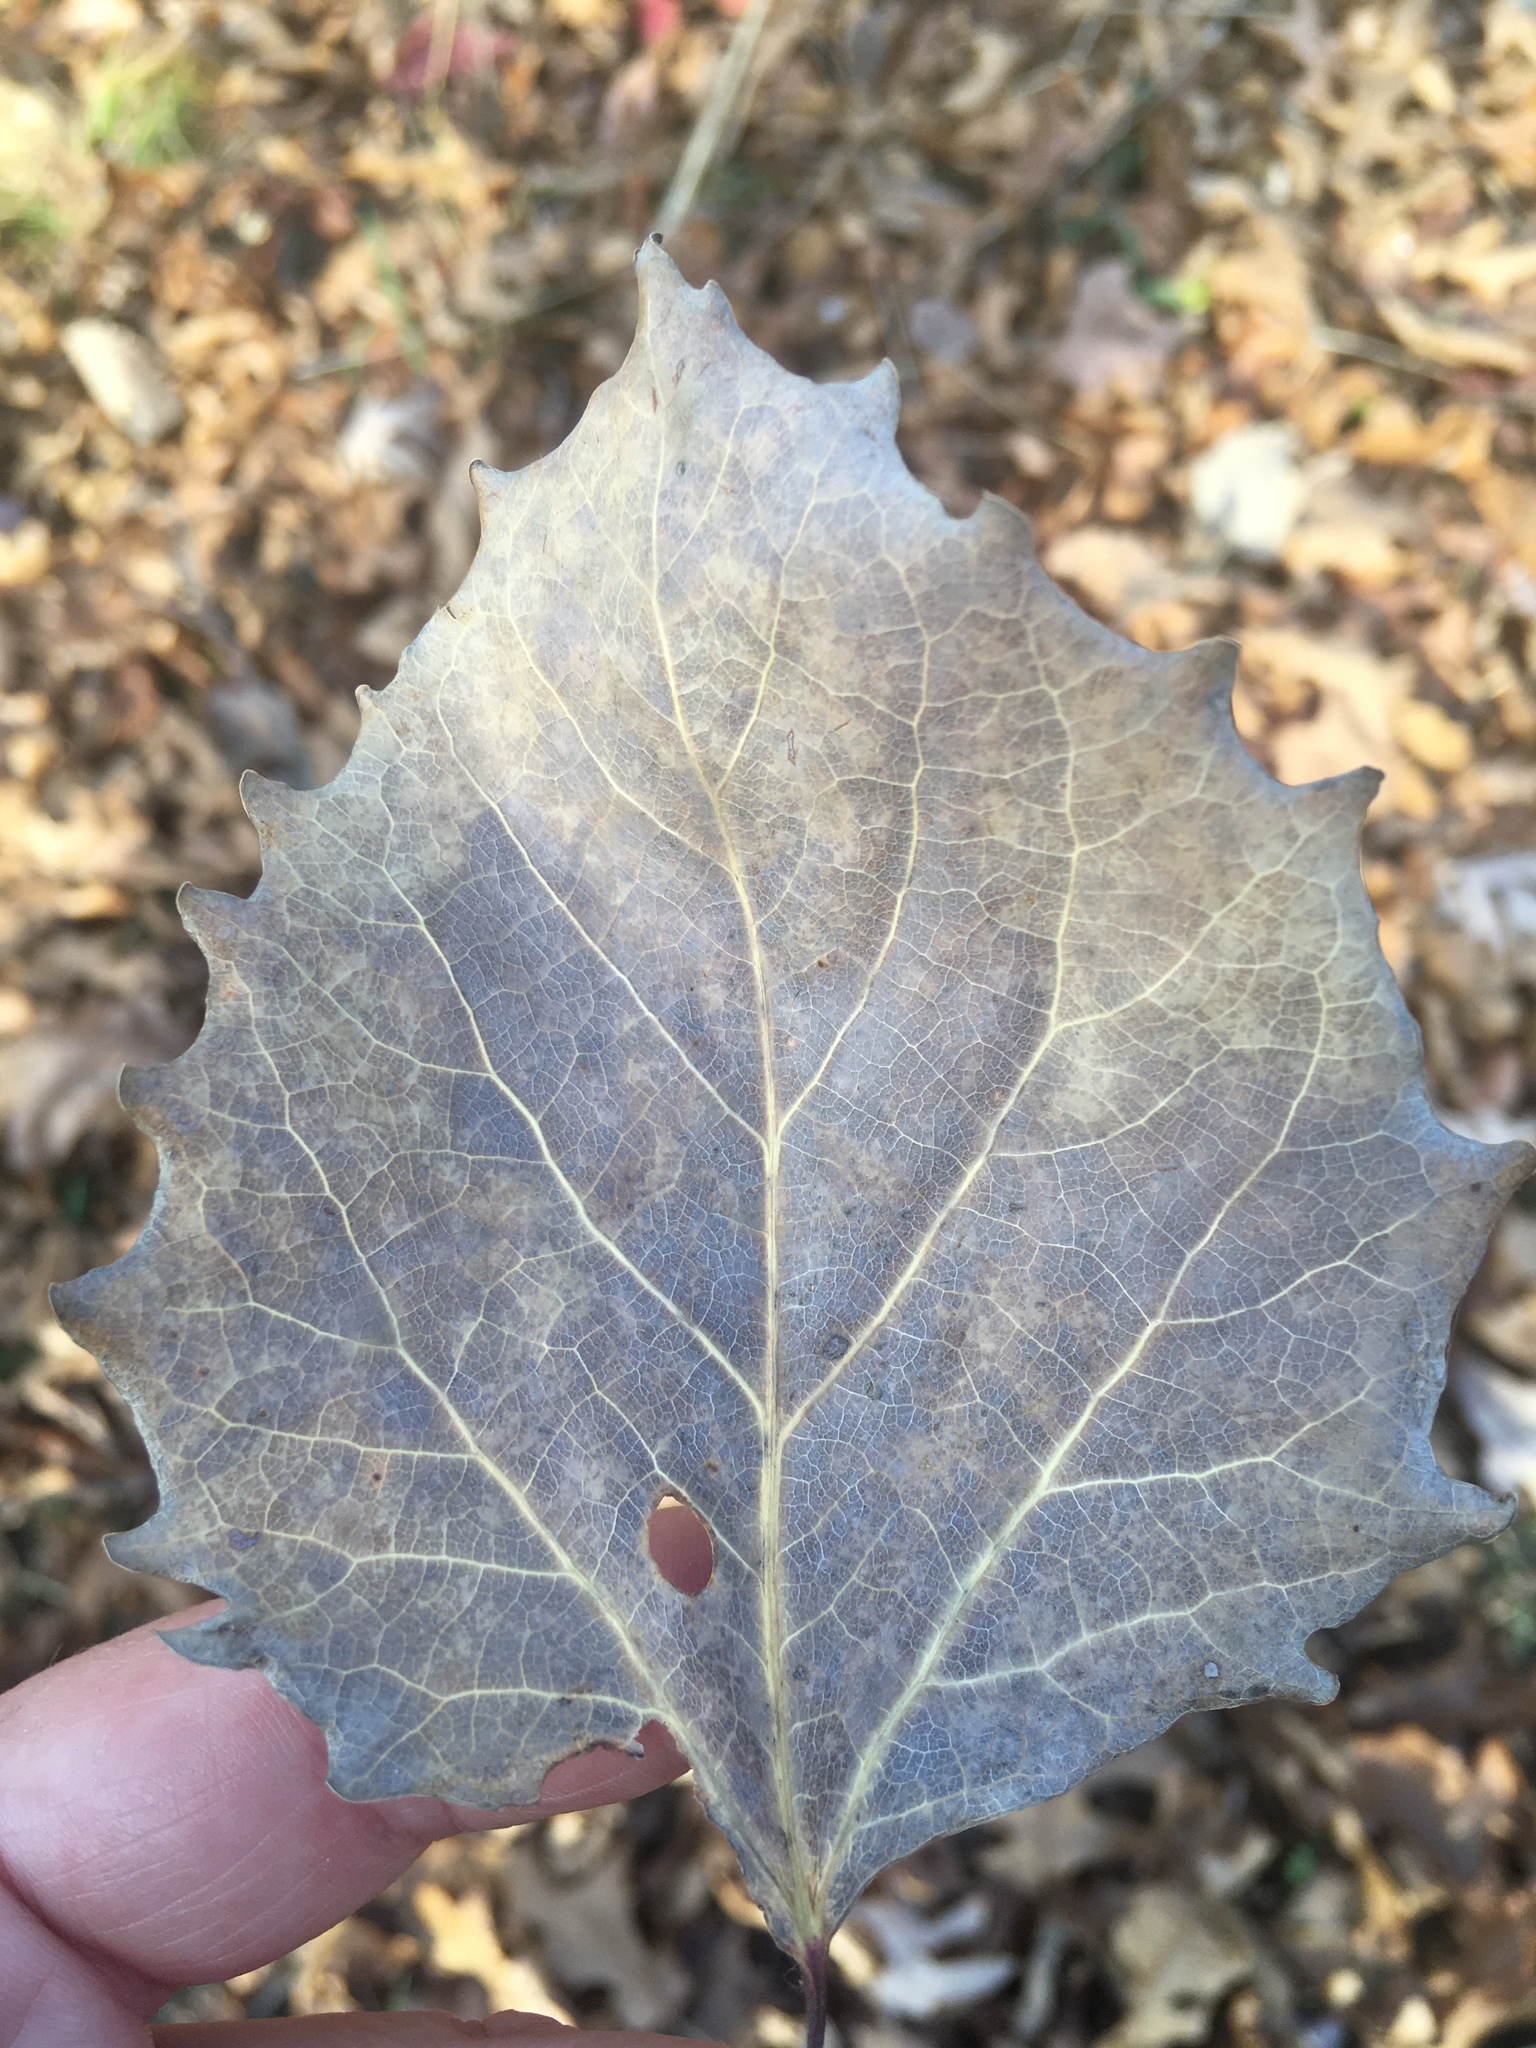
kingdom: Plantae
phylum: Tracheophyta
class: Magnoliopsida
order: Malpighiales
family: Salicaceae
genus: Populus
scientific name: Populus grandidentata
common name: Bigtooth aspen
